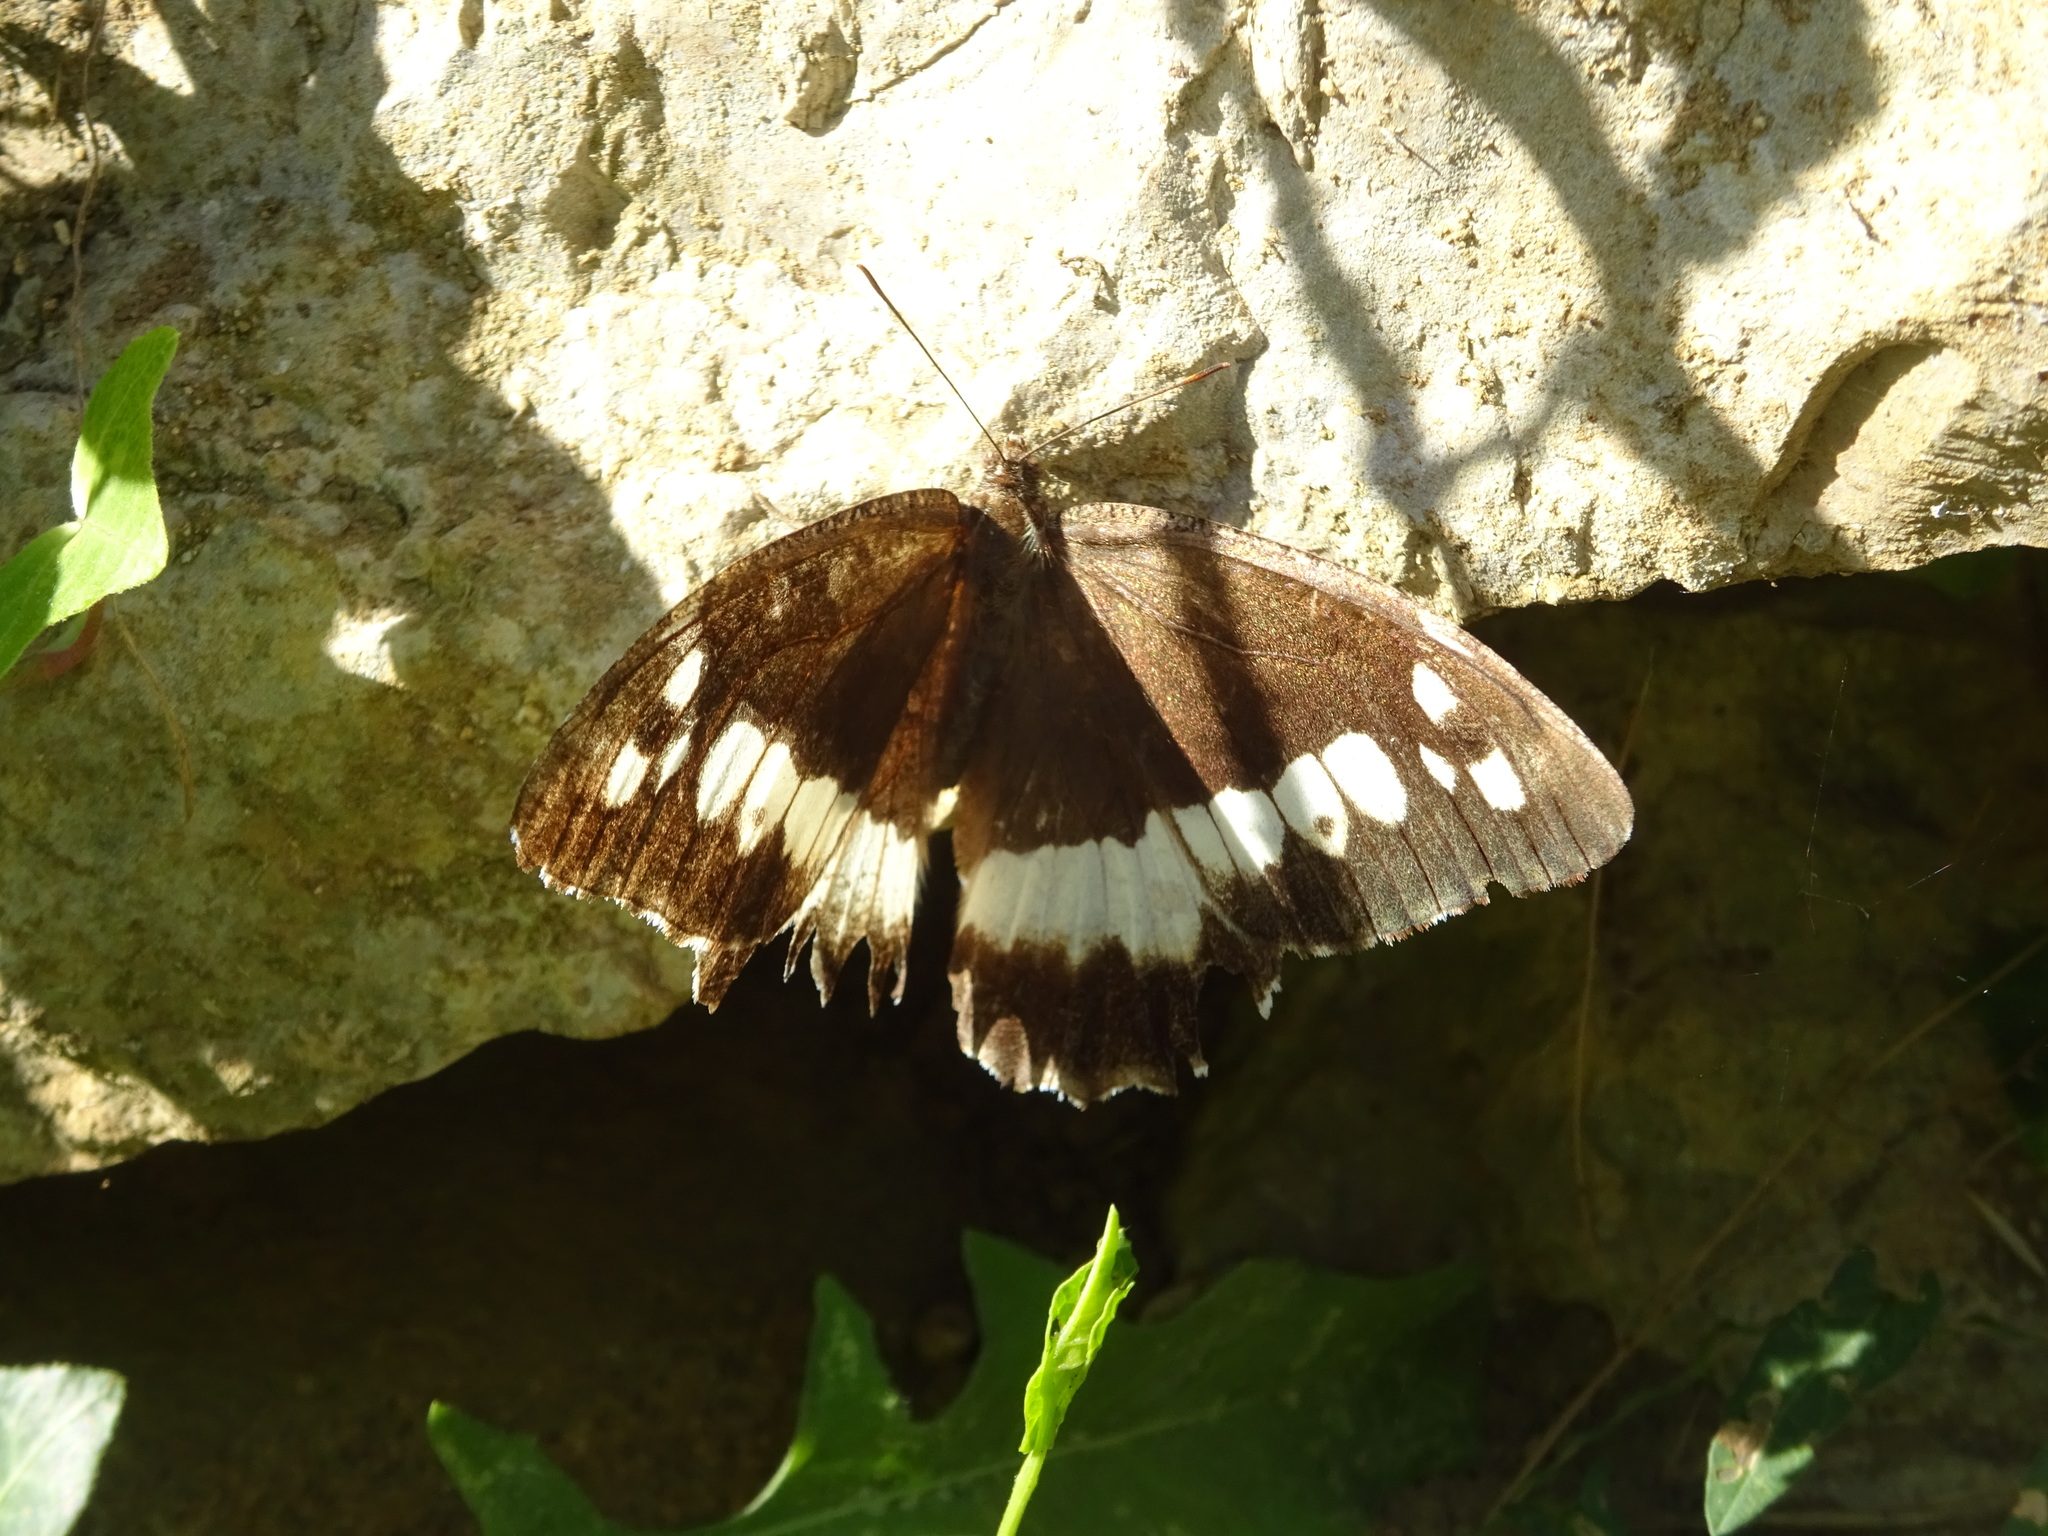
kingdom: Animalia
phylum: Arthropoda
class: Insecta
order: Lepidoptera
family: Lycaenidae
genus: Loweia
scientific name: Loweia tityrus
